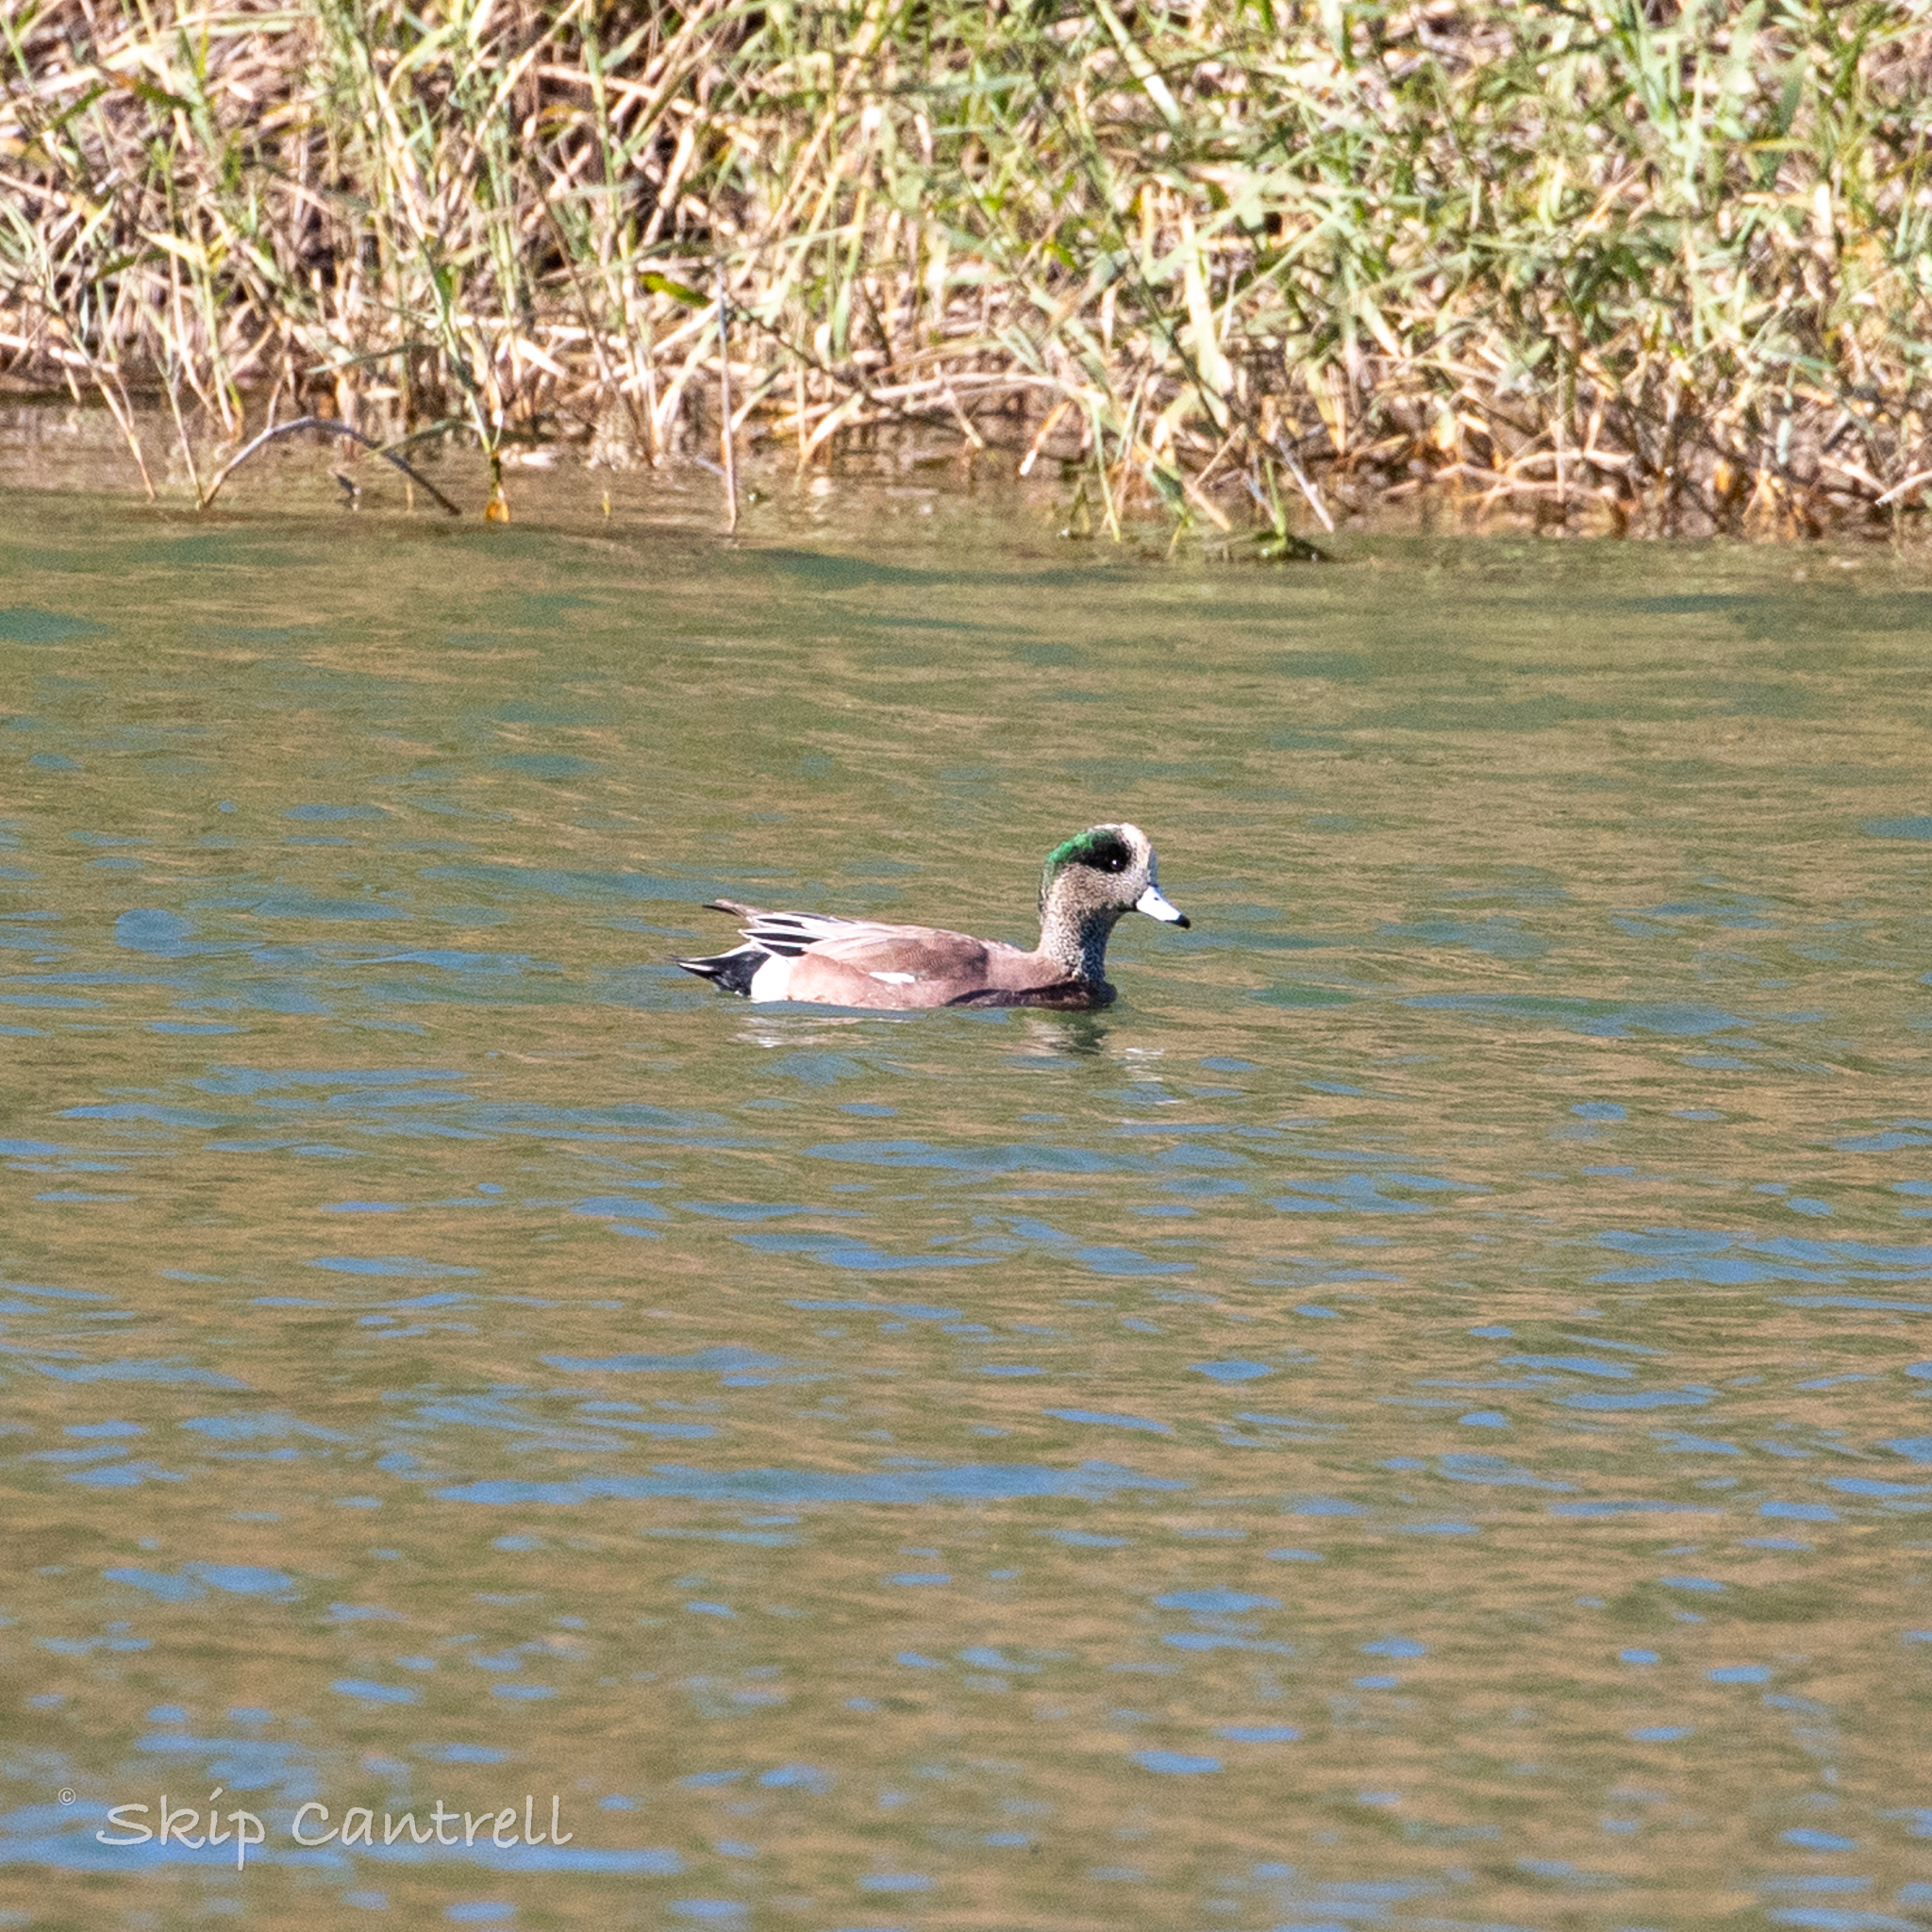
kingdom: Animalia
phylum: Chordata
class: Aves
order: Anseriformes
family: Anatidae
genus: Mareca
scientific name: Mareca americana
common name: American wigeon
